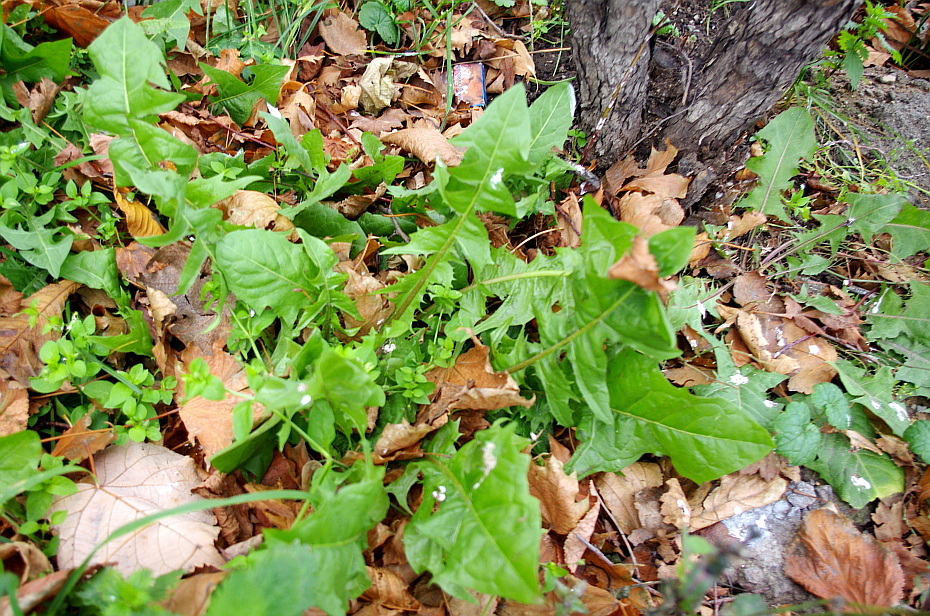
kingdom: Plantae
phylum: Tracheophyta
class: Magnoliopsida
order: Asterales
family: Asteraceae
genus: Taraxacum
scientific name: Taraxacum officinale
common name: Common dandelion
